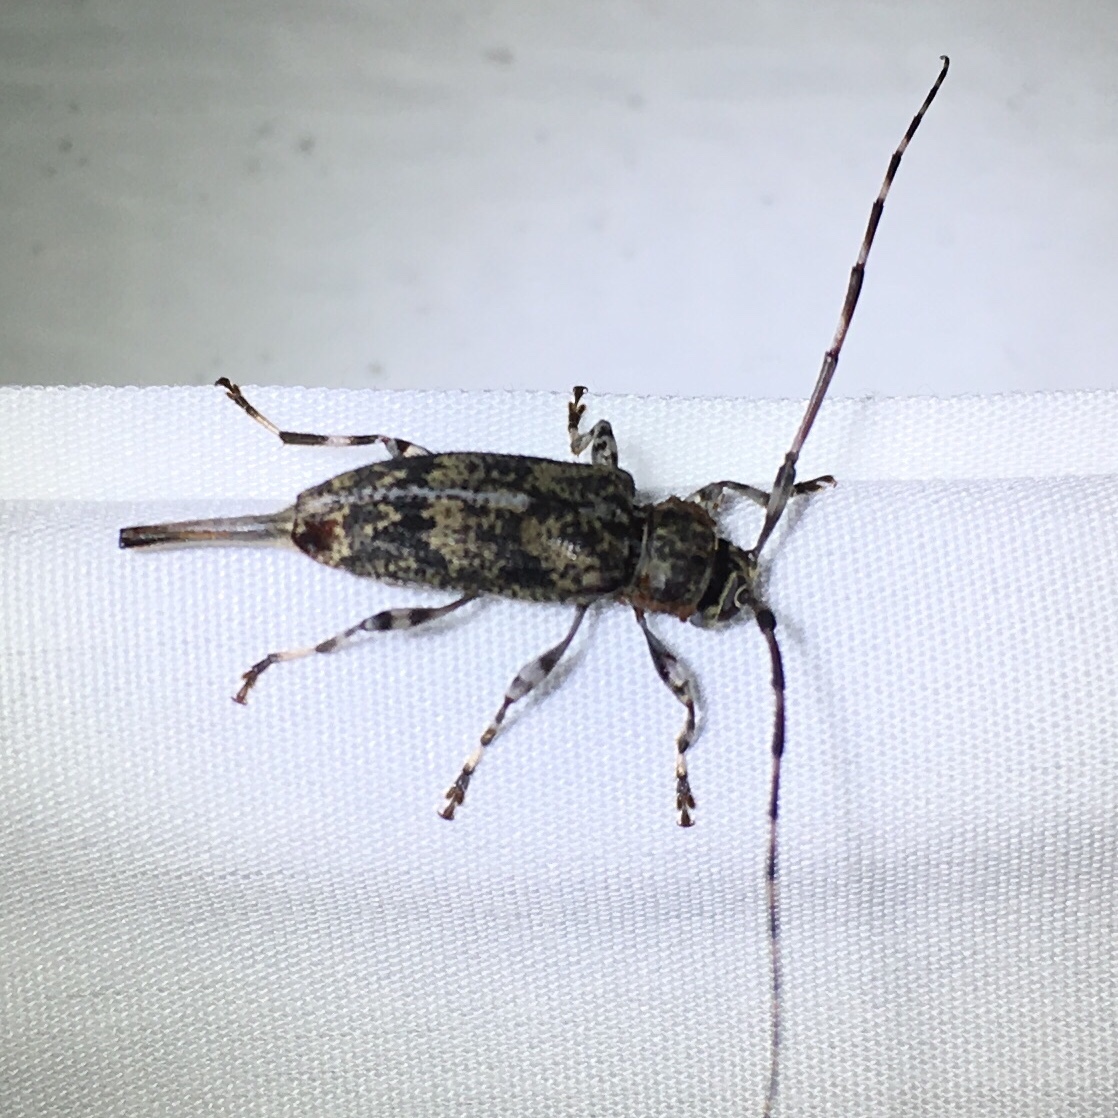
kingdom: Animalia
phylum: Arthropoda
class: Insecta
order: Coleoptera
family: Cerambycidae
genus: Graphisurus
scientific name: Graphisurus fasciatus
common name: Banded graphisurus
